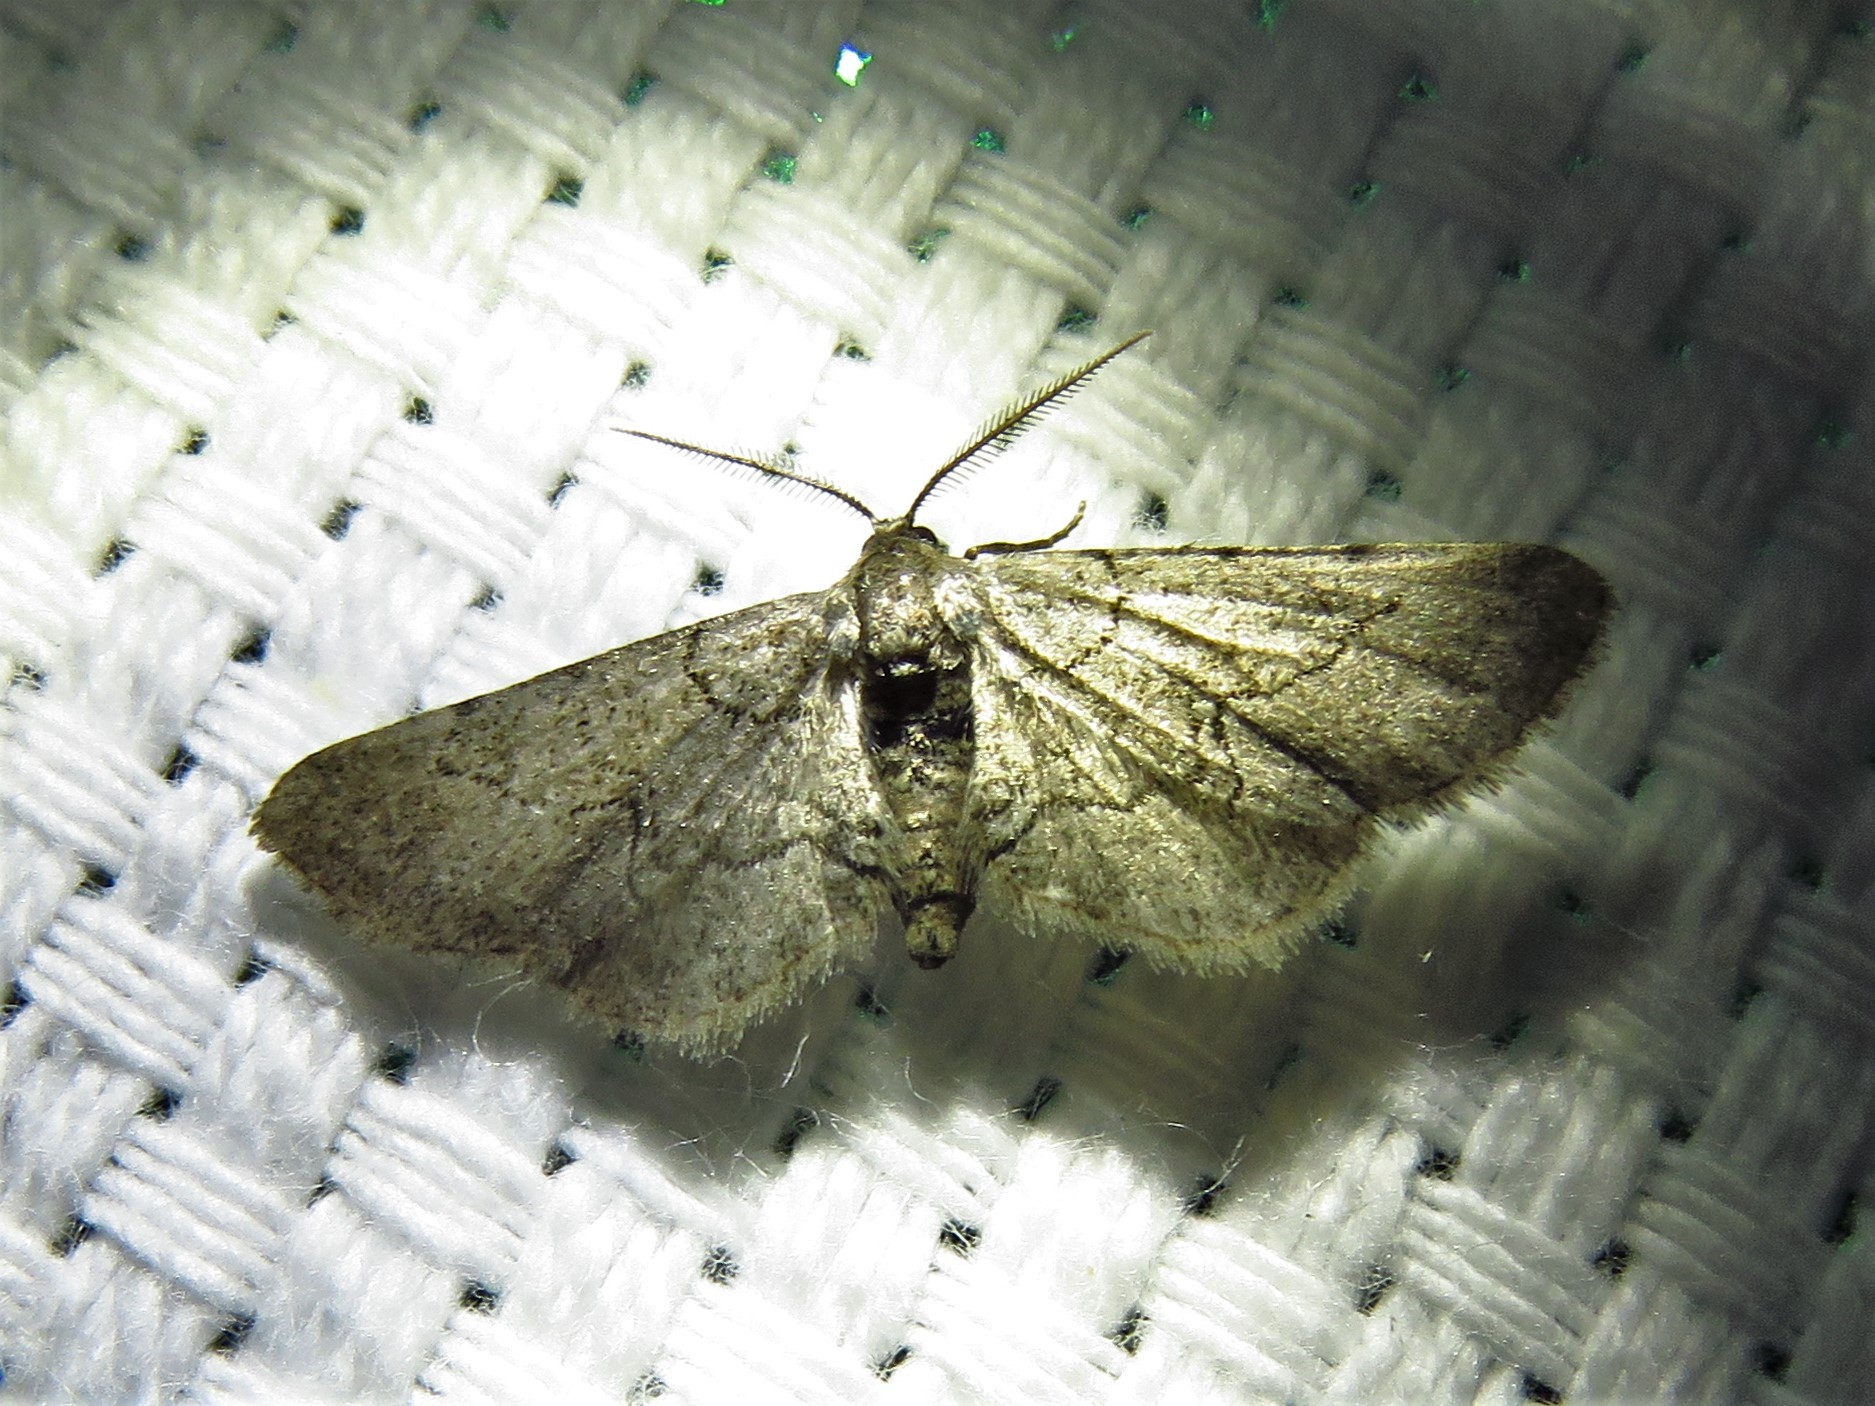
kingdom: Animalia
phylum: Arthropoda
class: Insecta
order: Lepidoptera
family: Geometridae
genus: Exelis
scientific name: Exelis ophiurus
